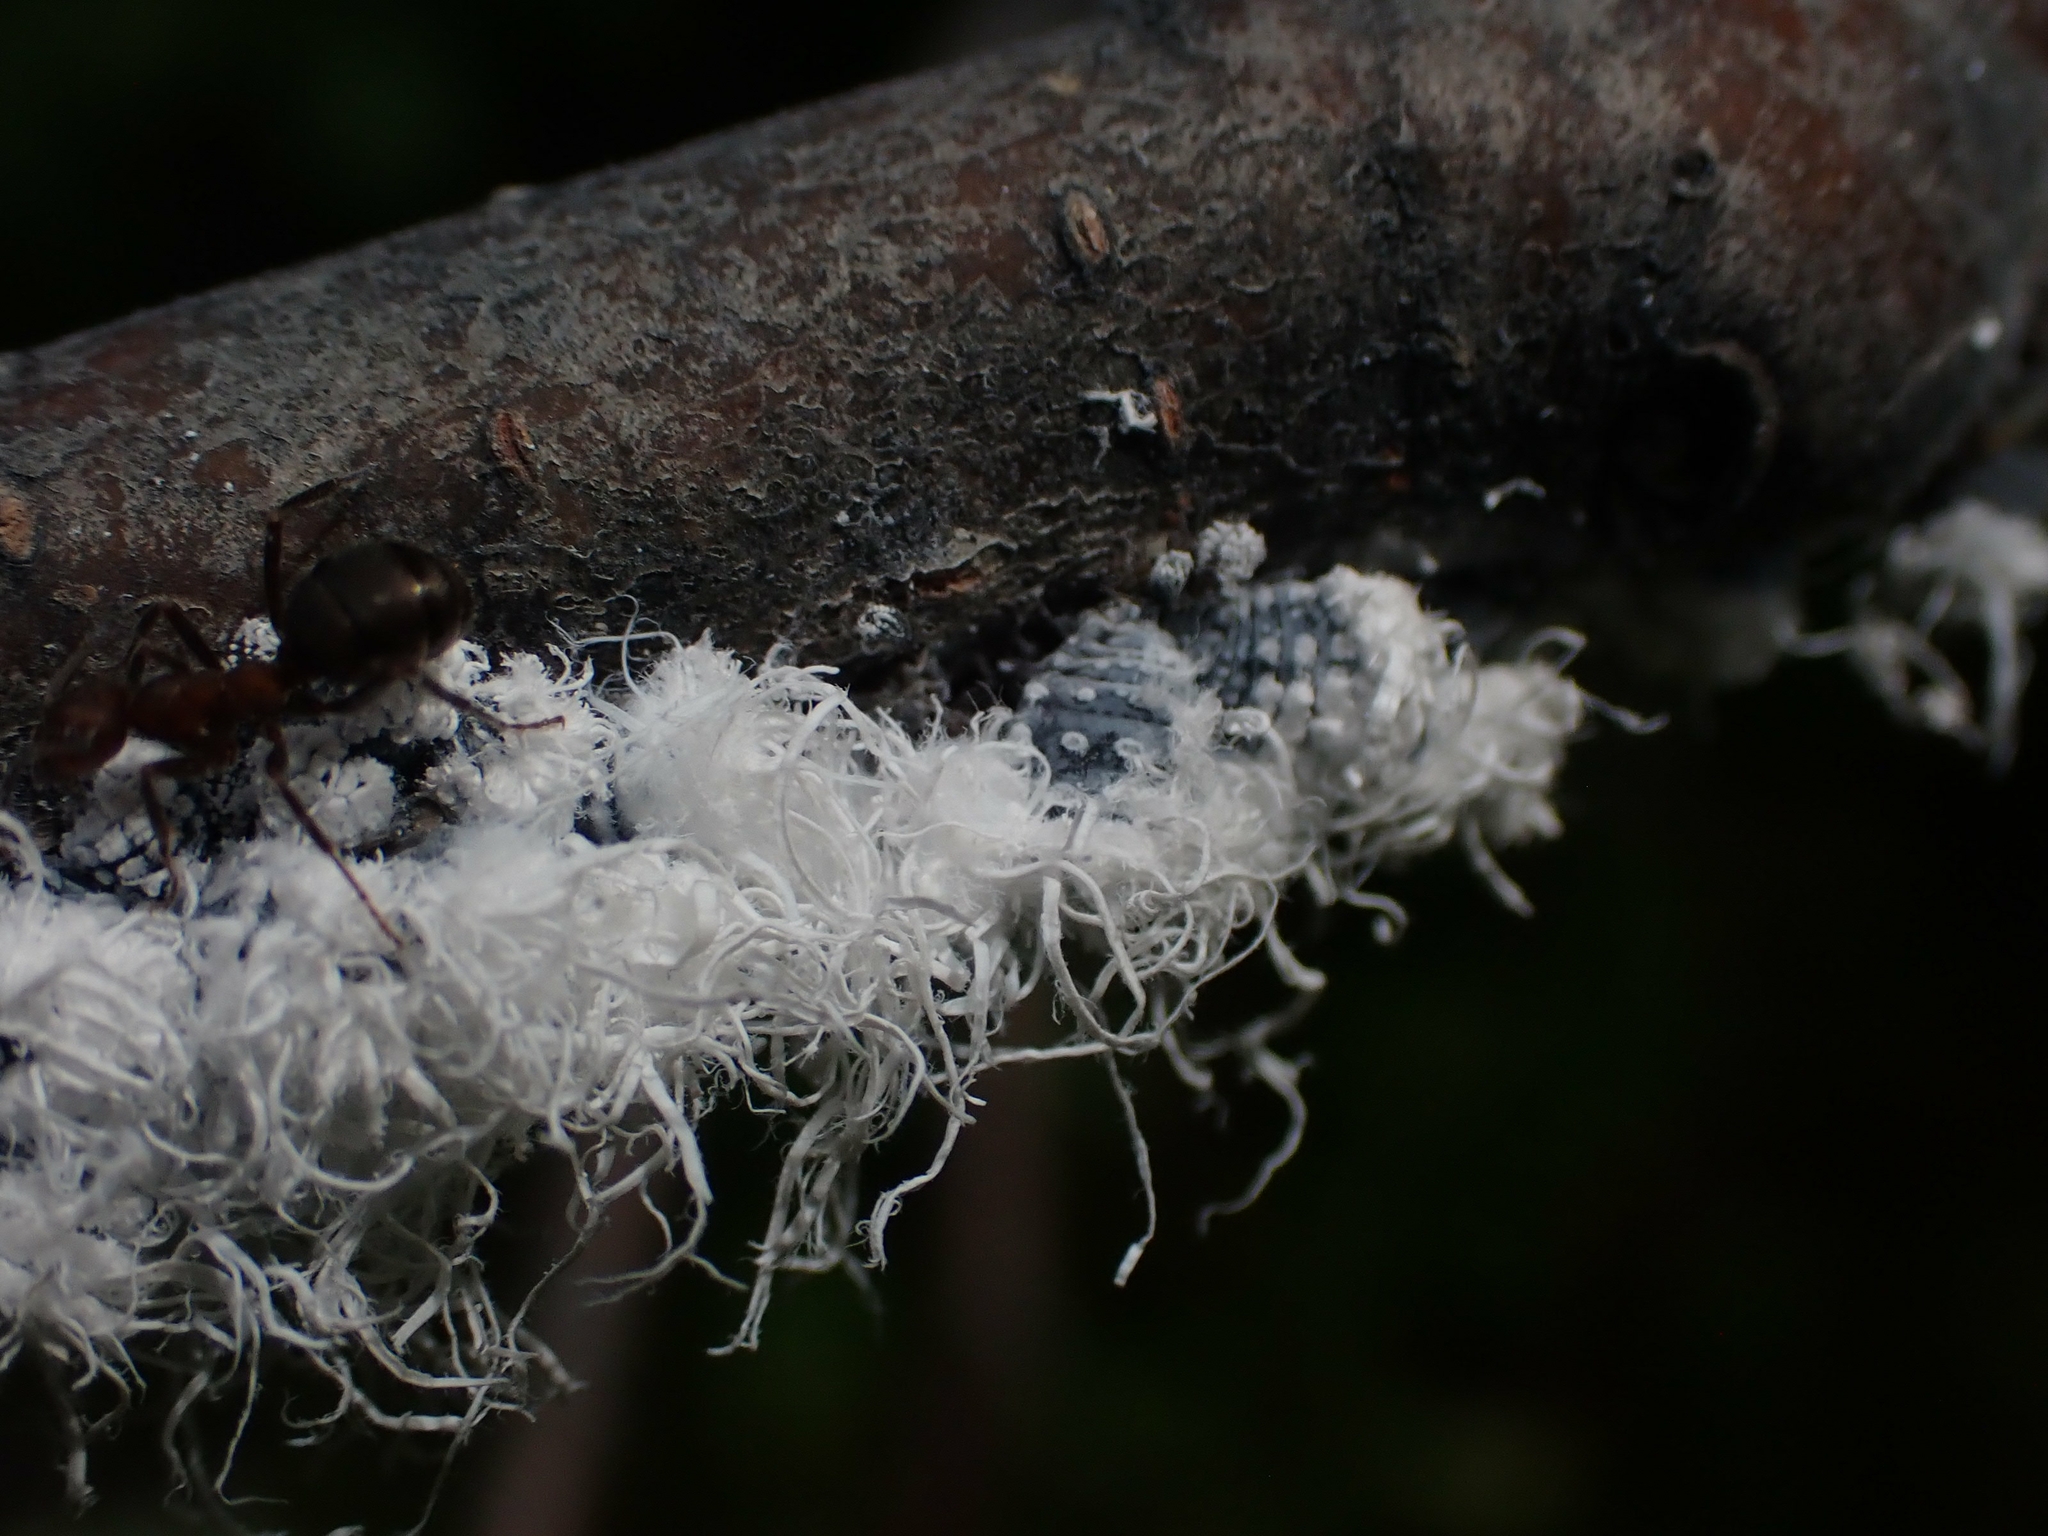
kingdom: Animalia
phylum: Arthropoda
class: Insecta
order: Hemiptera
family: Aphididae
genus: Prociphilus
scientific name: Prociphilus tessellatus
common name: Woolly alder aphid
